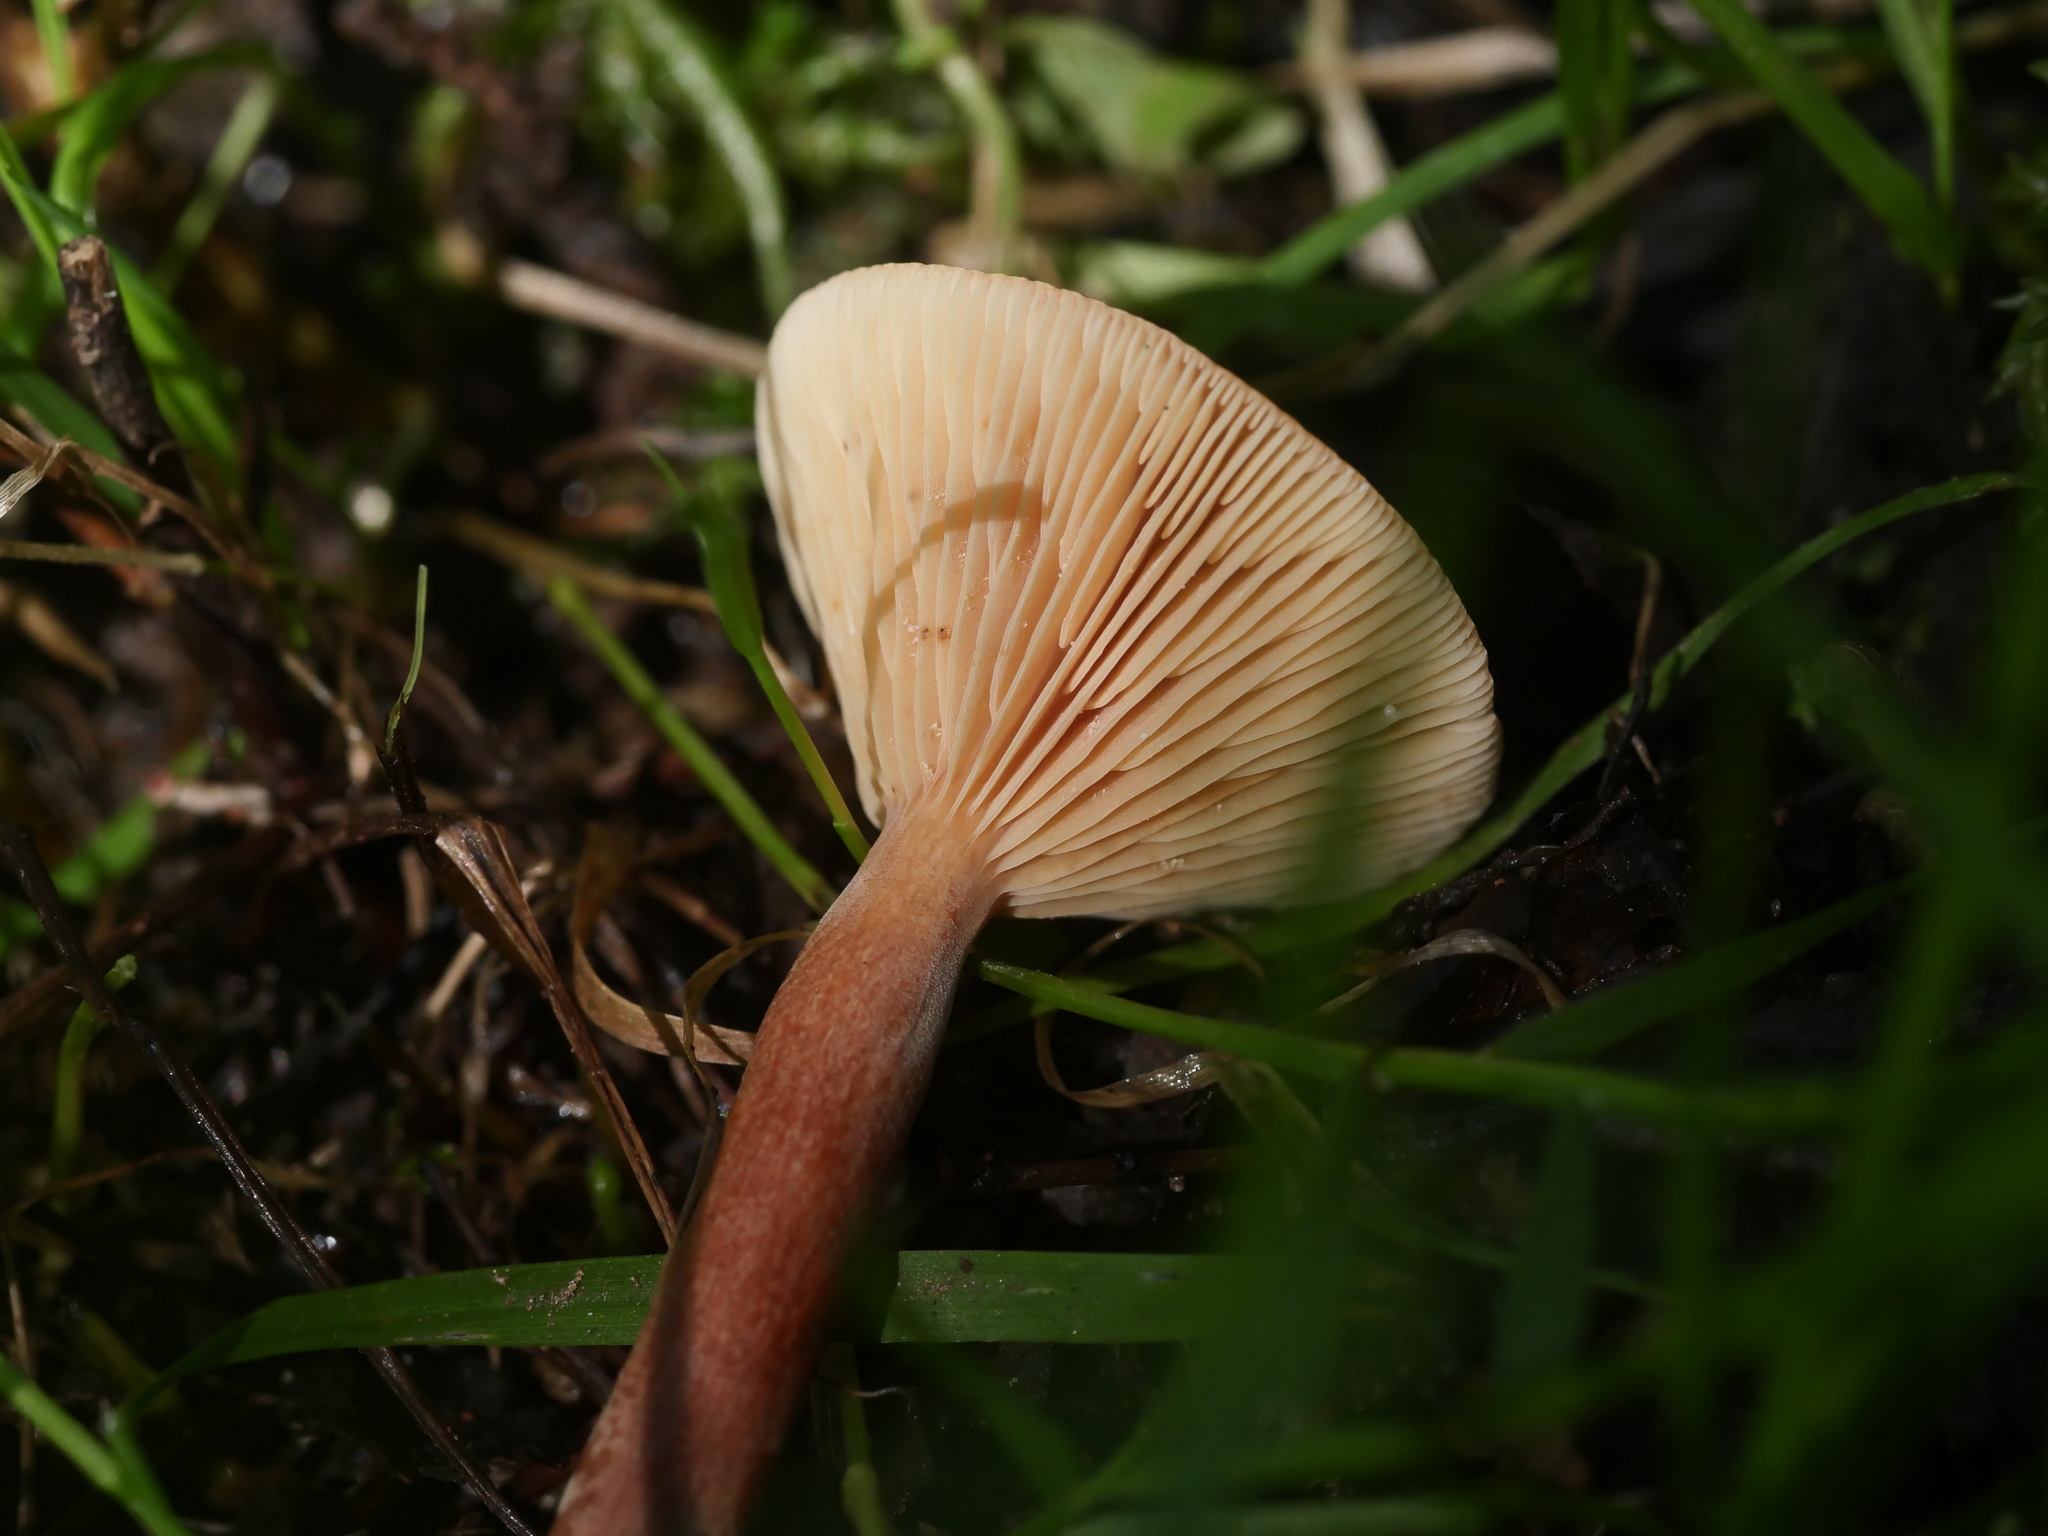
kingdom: Fungi
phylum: Basidiomycota
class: Agaricomycetes
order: Russulales
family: Russulaceae
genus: Lactarius
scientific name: Lactarius camphoratus
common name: Curry milkcap
